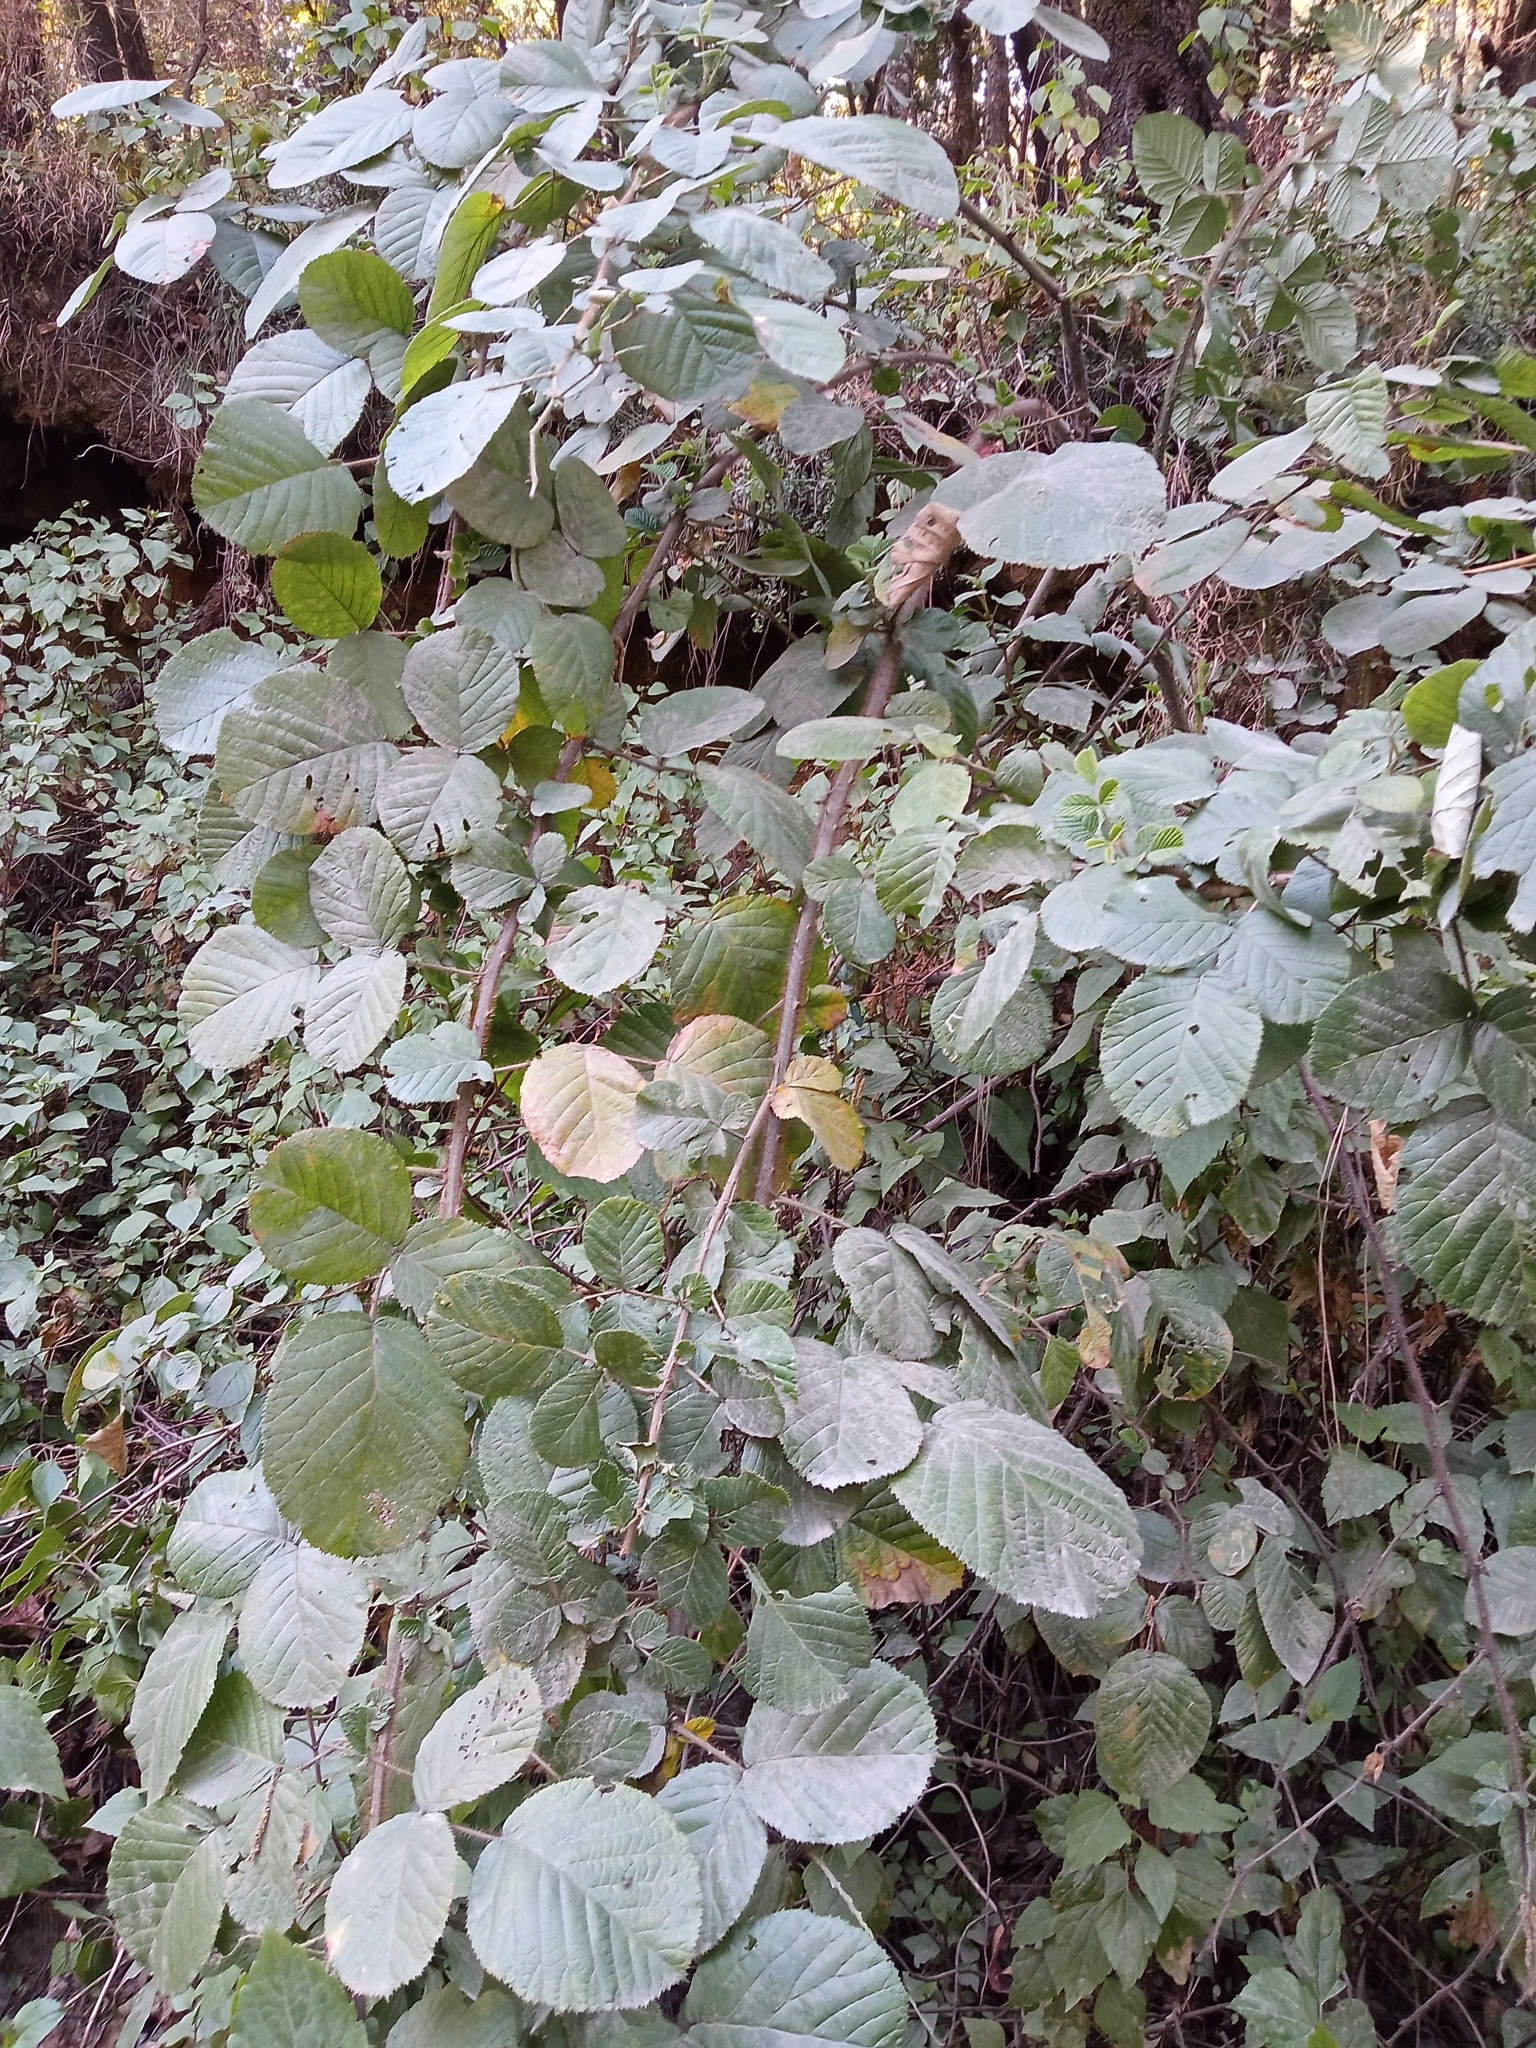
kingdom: Plantae
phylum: Tracheophyta
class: Magnoliopsida
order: Rosales
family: Rosaceae
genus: Rubus
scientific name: Rubus ellipticus
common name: Cheeseberry
